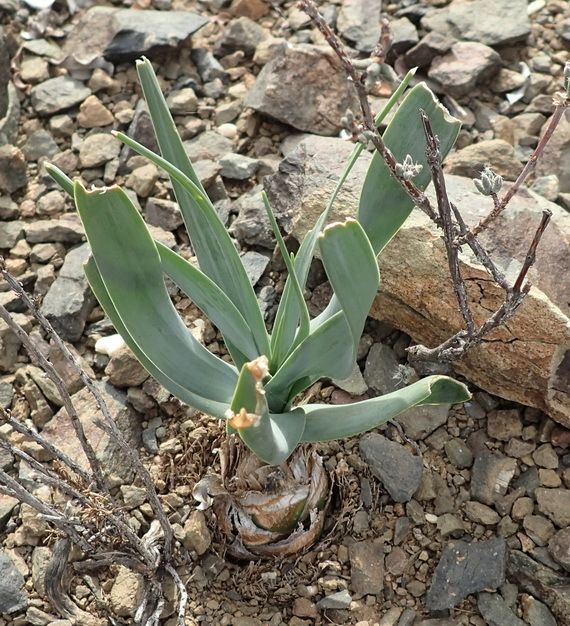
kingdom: Plantae
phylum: Tracheophyta
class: Liliopsida
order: Asparagales
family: Asparagaceae
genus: Fusifilum
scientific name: Fusifilum physodes
